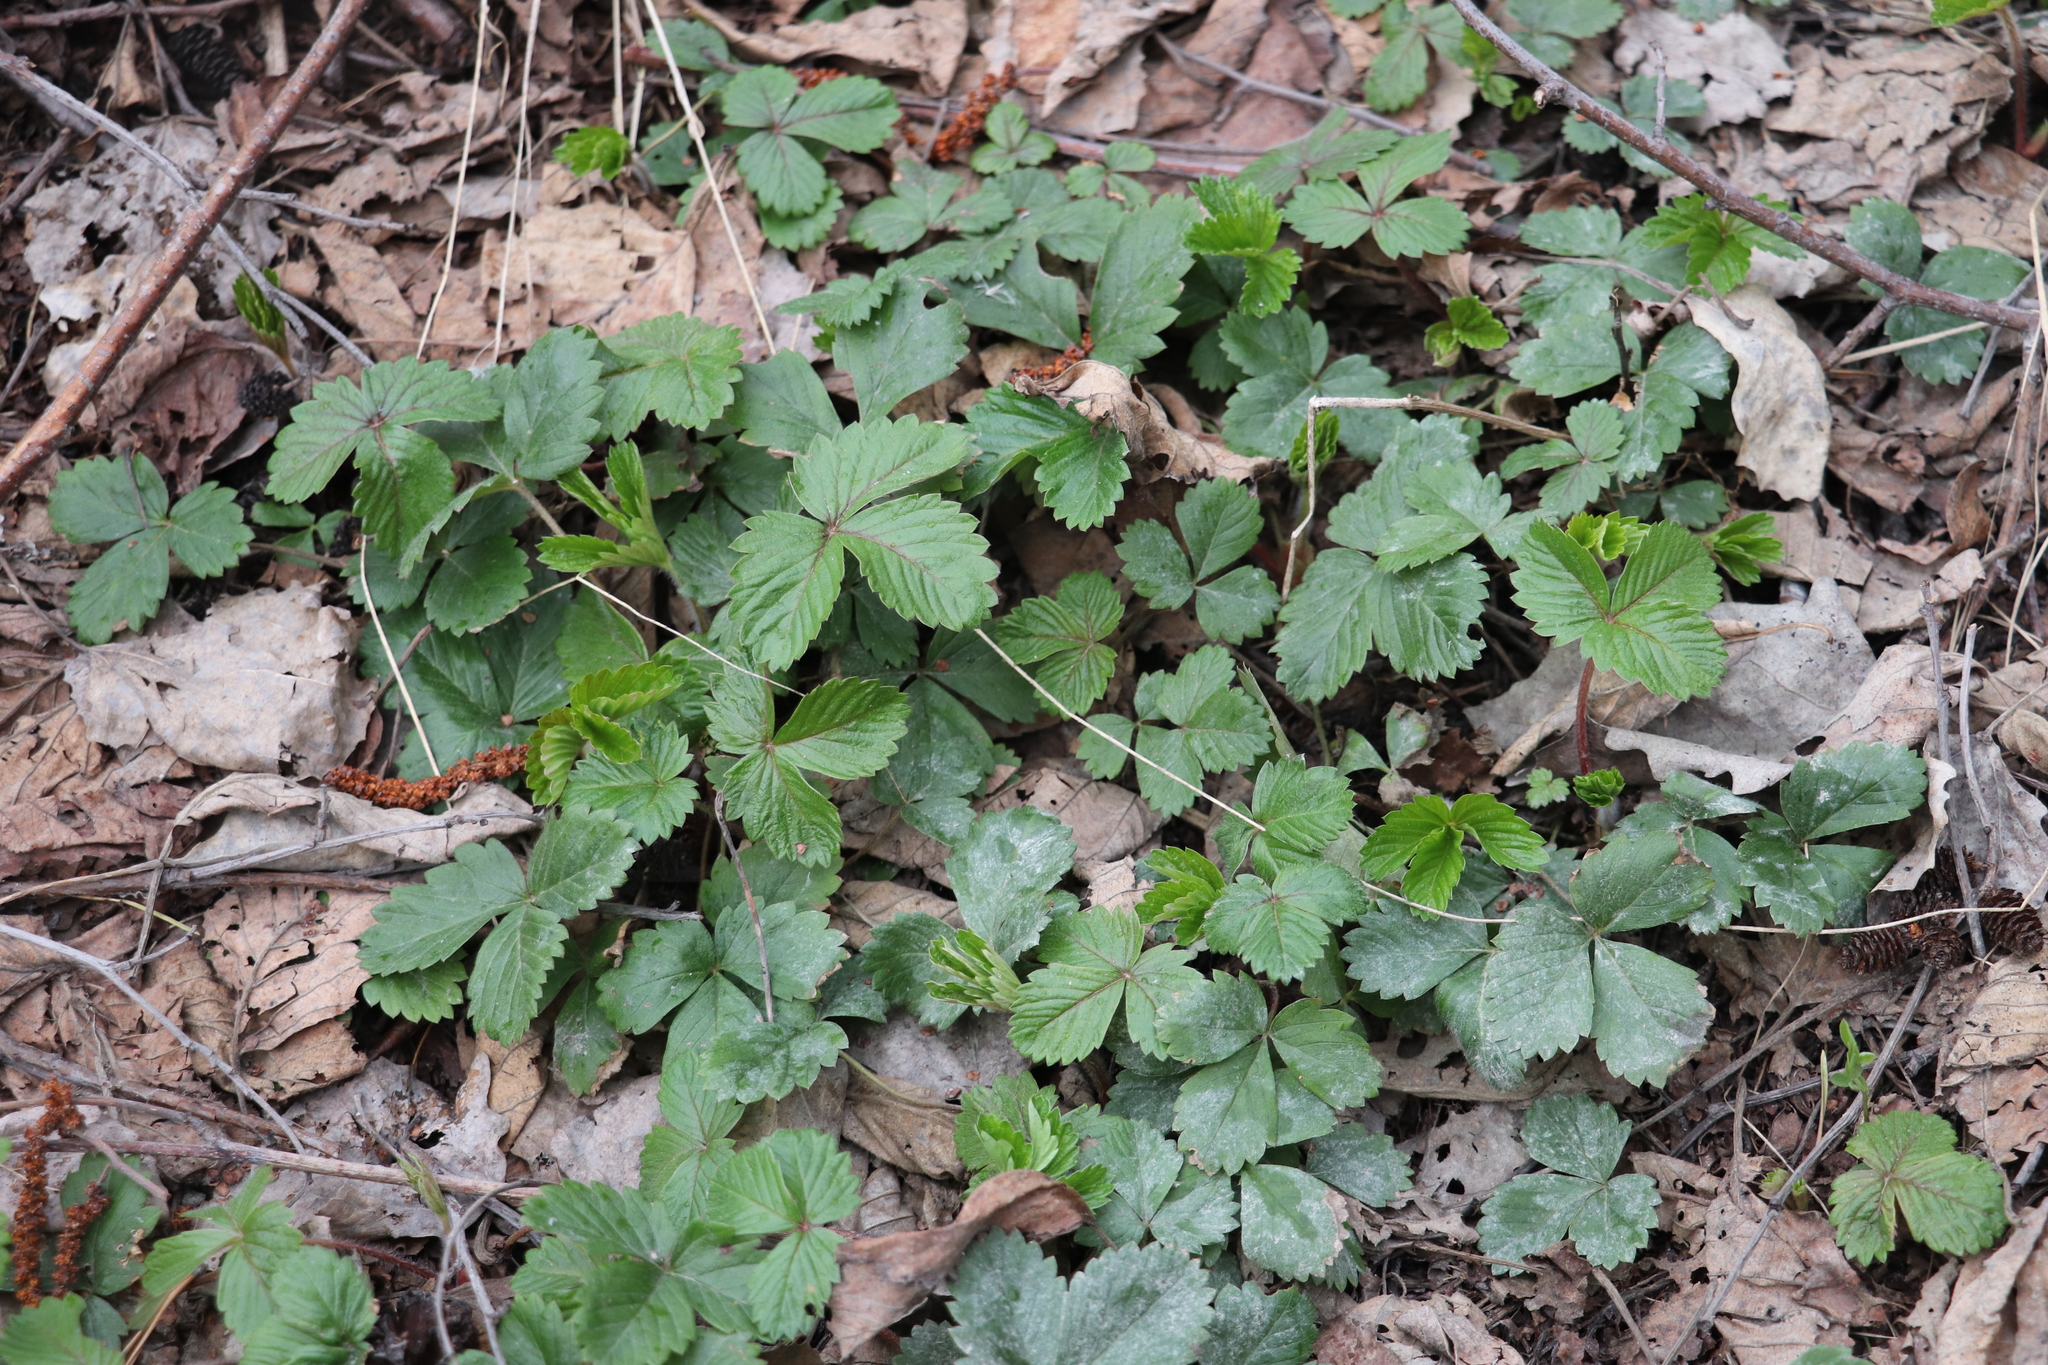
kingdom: Plantae
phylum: Tracheophyta
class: Magnoliopsida
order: Rosales
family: Rosaceae
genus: Fragaria
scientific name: Fragaria vesca
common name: Wild strawberry
